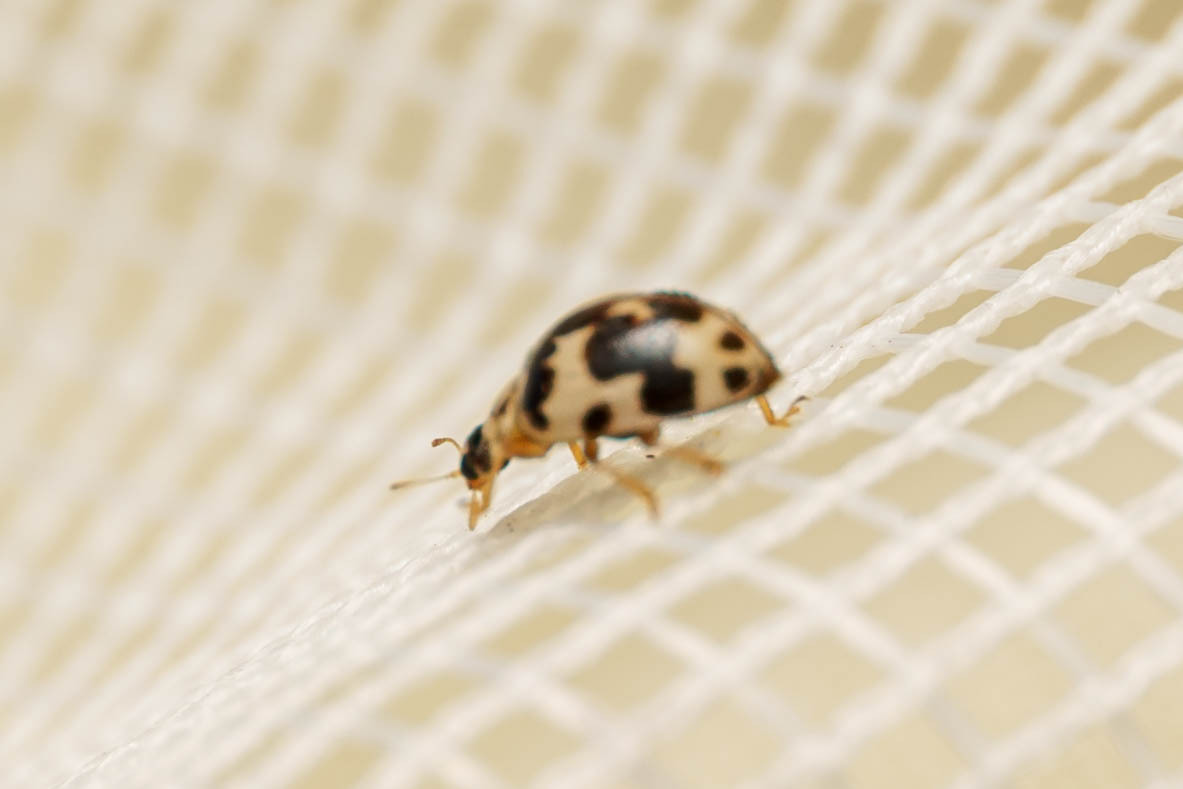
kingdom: Animalia
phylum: Arthropoda
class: Insecta
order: Coleoptera
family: Coccinellidae
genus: Psyllobora
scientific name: Psyllobora borealis
